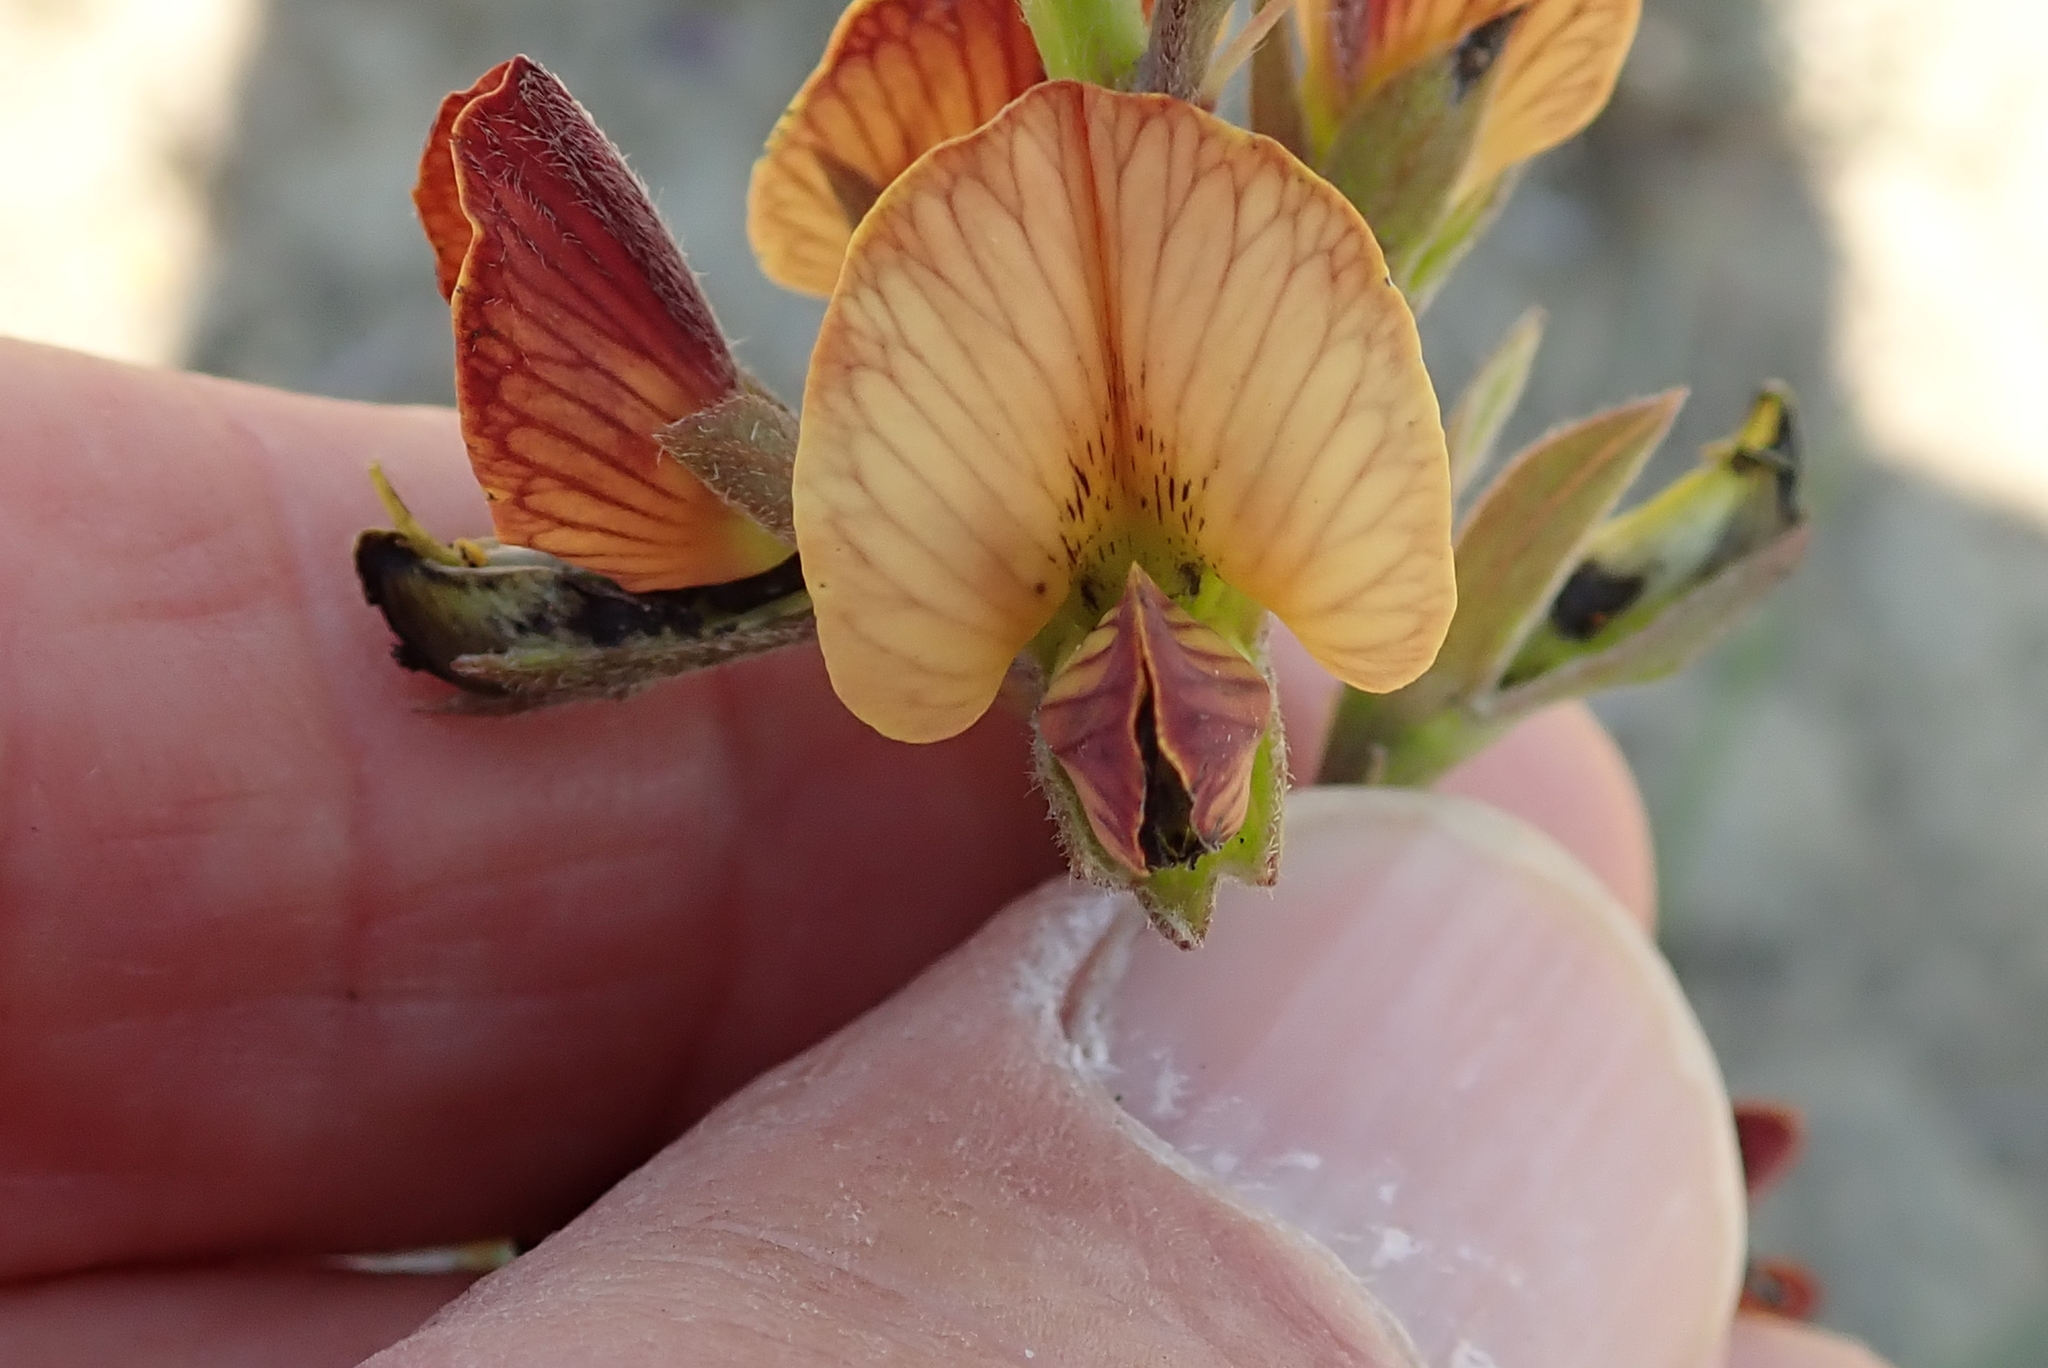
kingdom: Plantae
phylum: Tracheophyta
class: Magnoliopsida
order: Fabales
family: Fabaceae
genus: Argyrolobium
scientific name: Argyrolobium robustum
